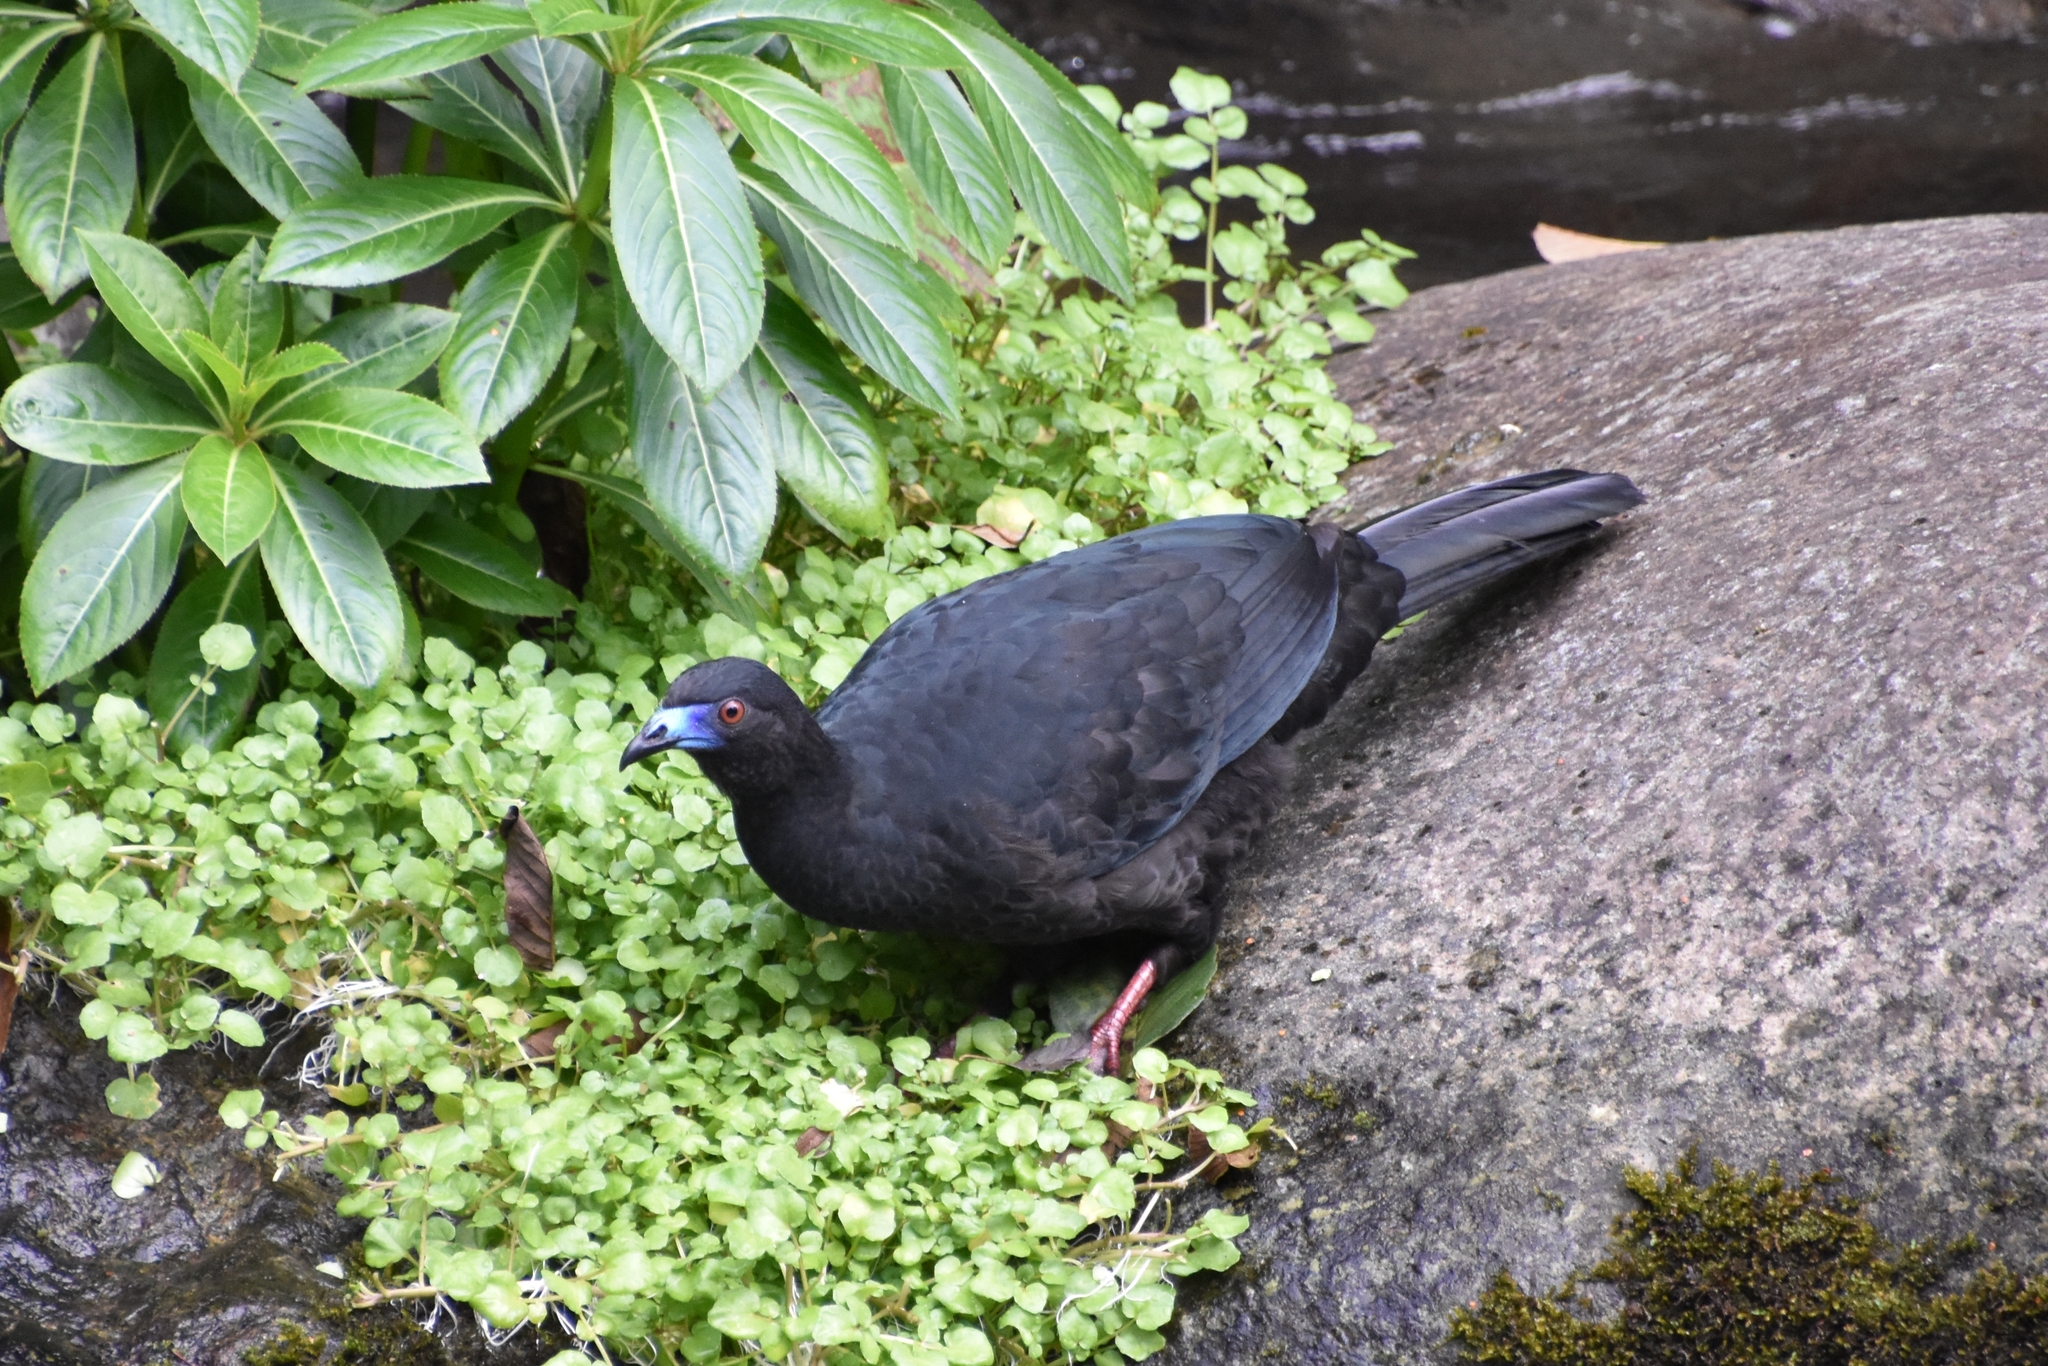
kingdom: Animalia
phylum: Chordata
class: Aves
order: Galliformes
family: Cracidae
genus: Chamaepetes
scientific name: Chamaepetes unicolor
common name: Black guan
